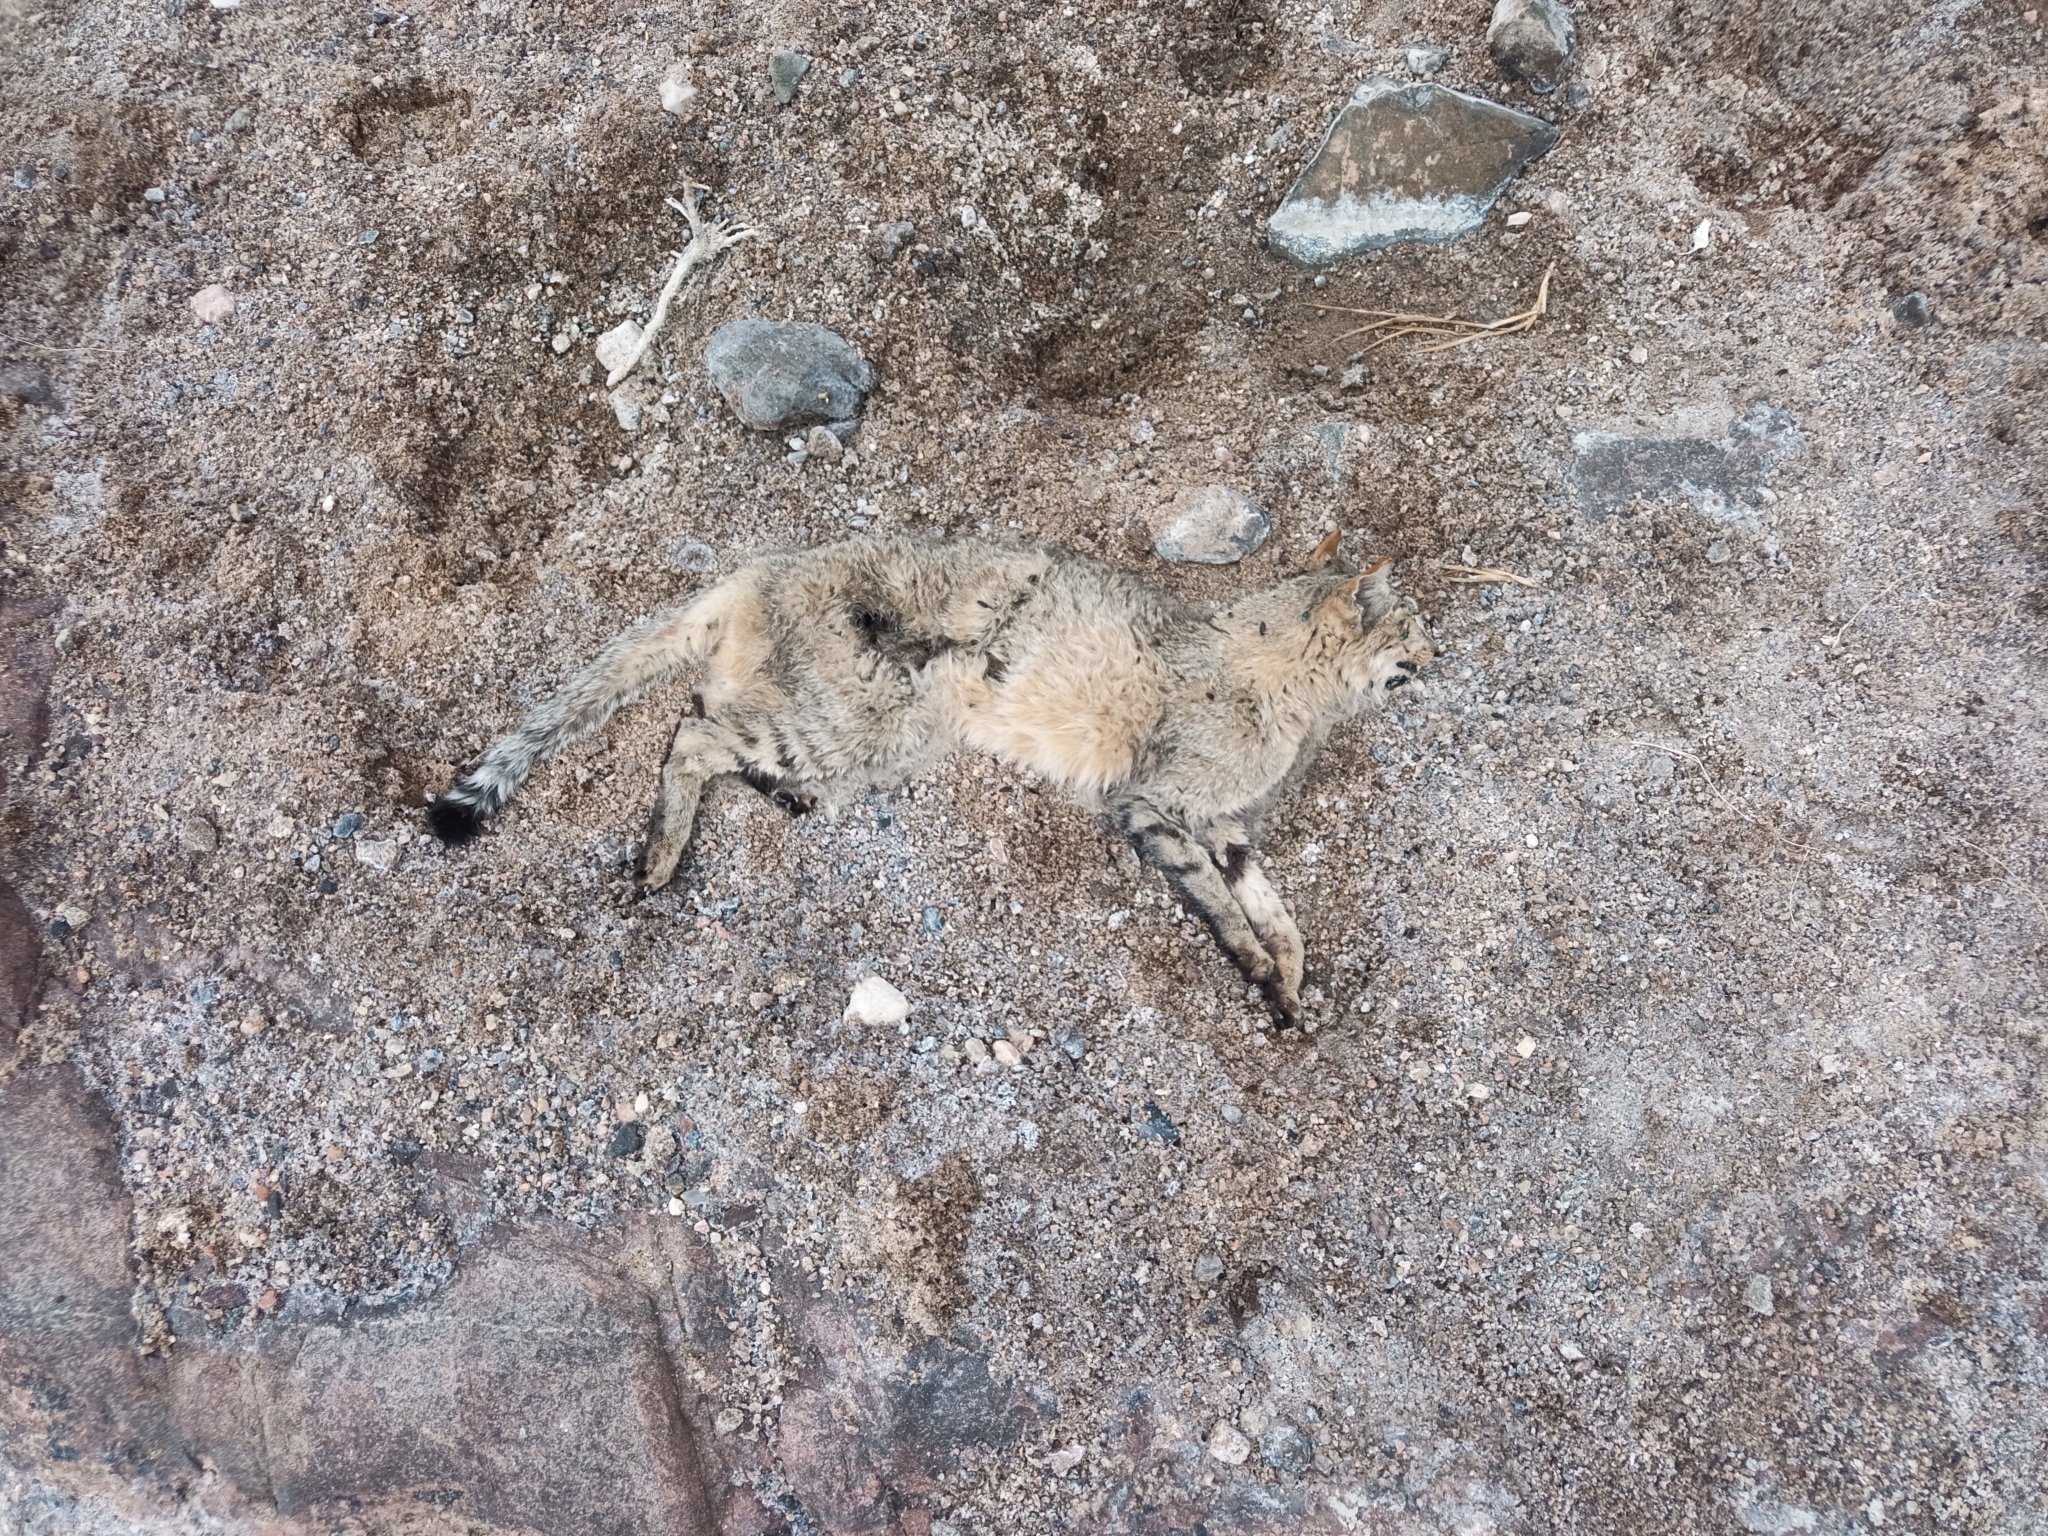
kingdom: Animalia
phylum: Chordata
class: Mammalia
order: Carnivora
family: Felidae
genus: Felis
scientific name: Felis silvestris
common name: Wildcat
